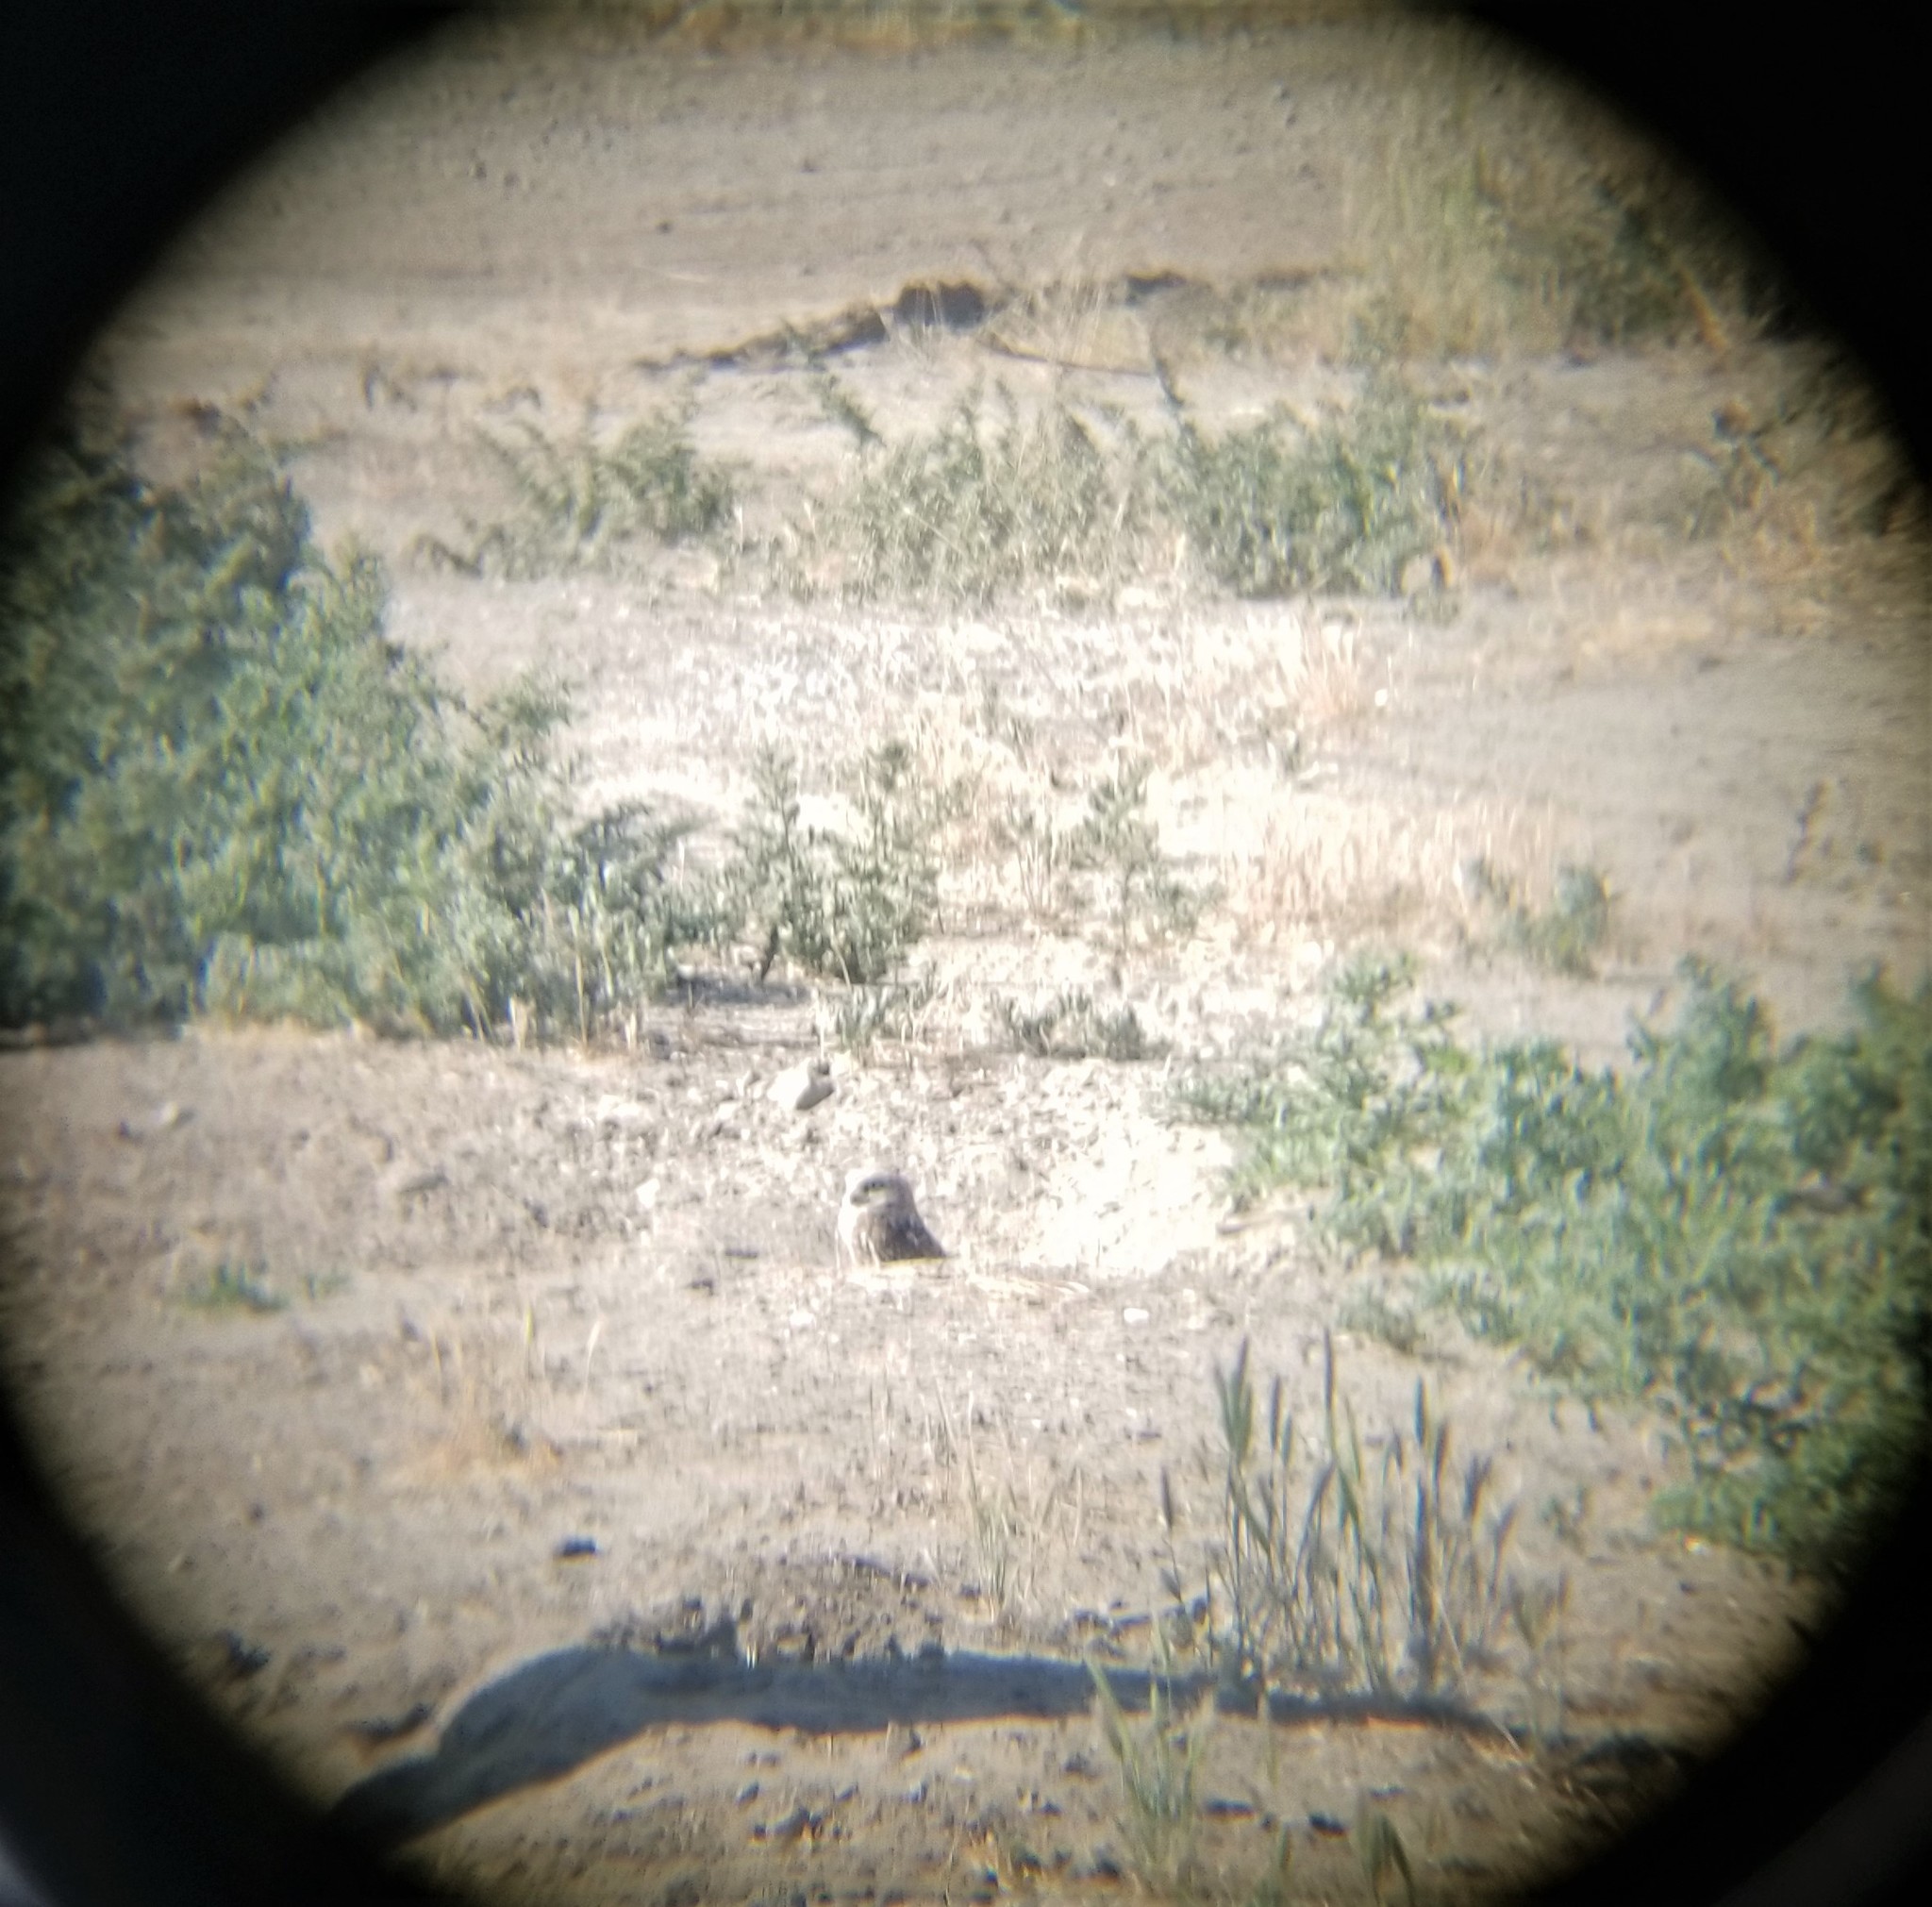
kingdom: Animalia
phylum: Chordata
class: Aves
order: Strigiformes
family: Strigidae
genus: Athene
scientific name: Athene cunicularia
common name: Burrowing owl
